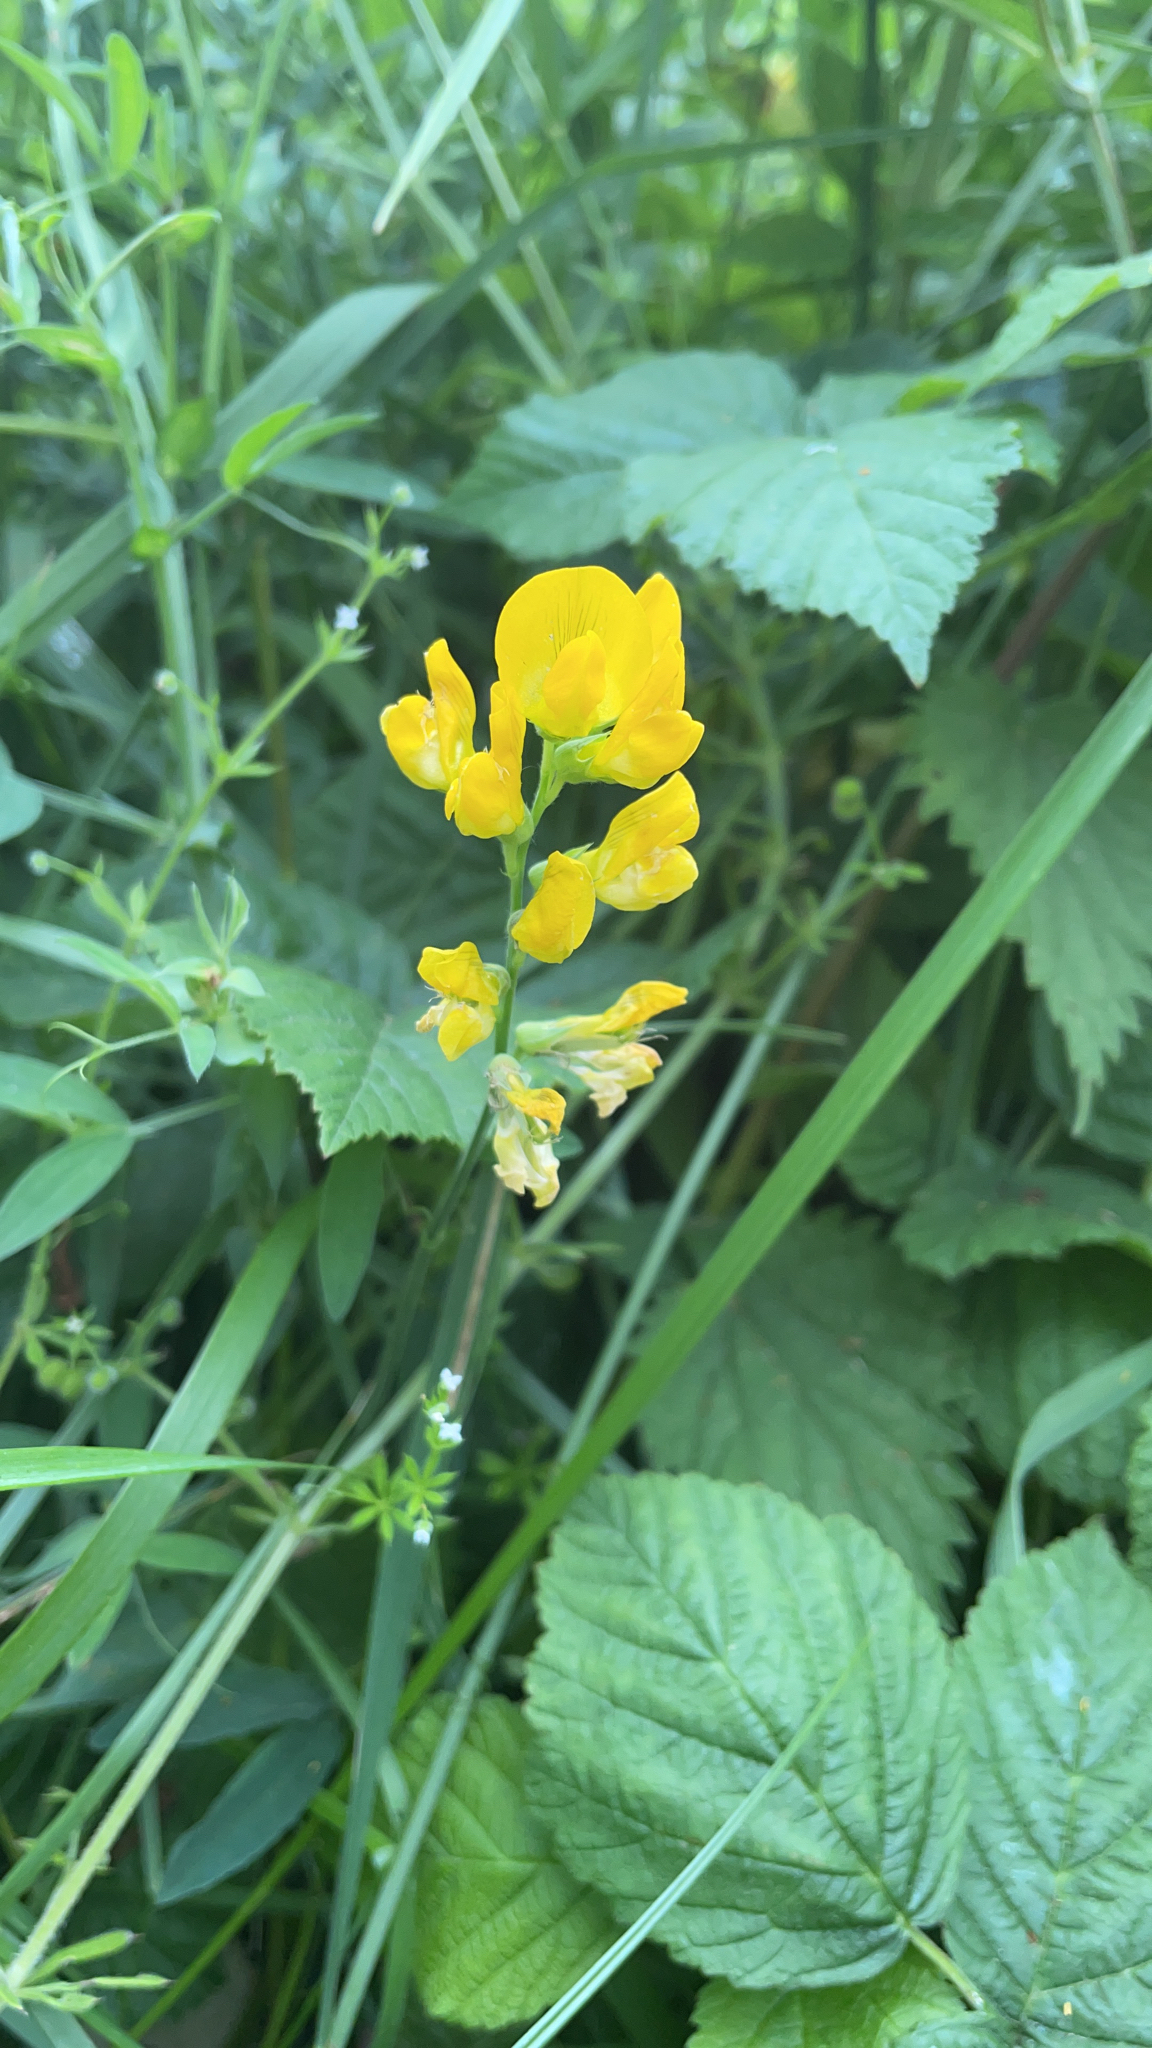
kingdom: Plantae
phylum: Tracheophyta
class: Magnoliopsida
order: Fabales
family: Fabaceae
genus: Lathyrus
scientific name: Lathyrus pratensis
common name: Meadow vetchling
